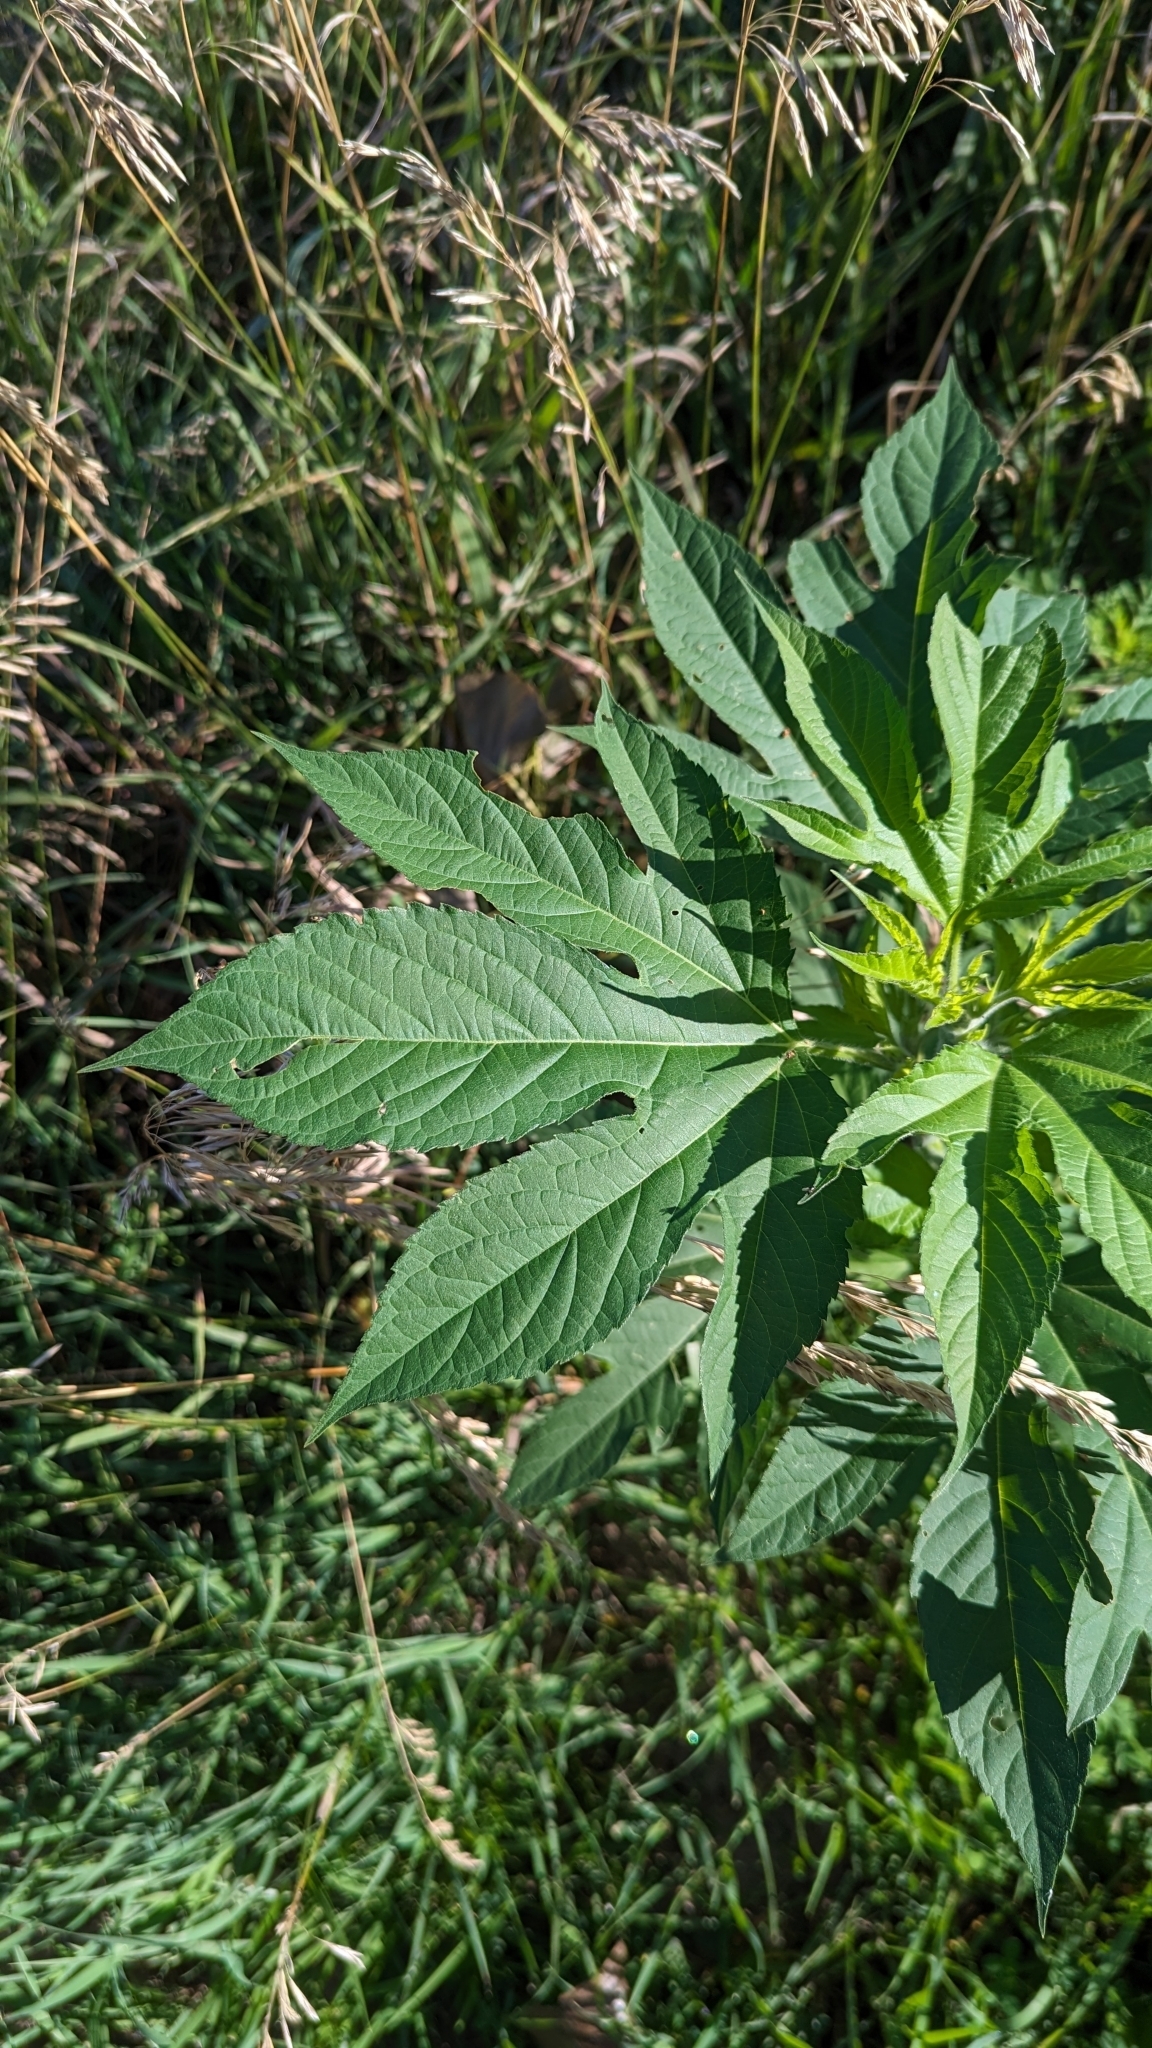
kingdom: Plantae
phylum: Tracheophyta
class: Magnoliopsida
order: Asterales
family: Asteraceae
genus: Ambrosia
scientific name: Ambrosia trifida
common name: Giant ragweed
